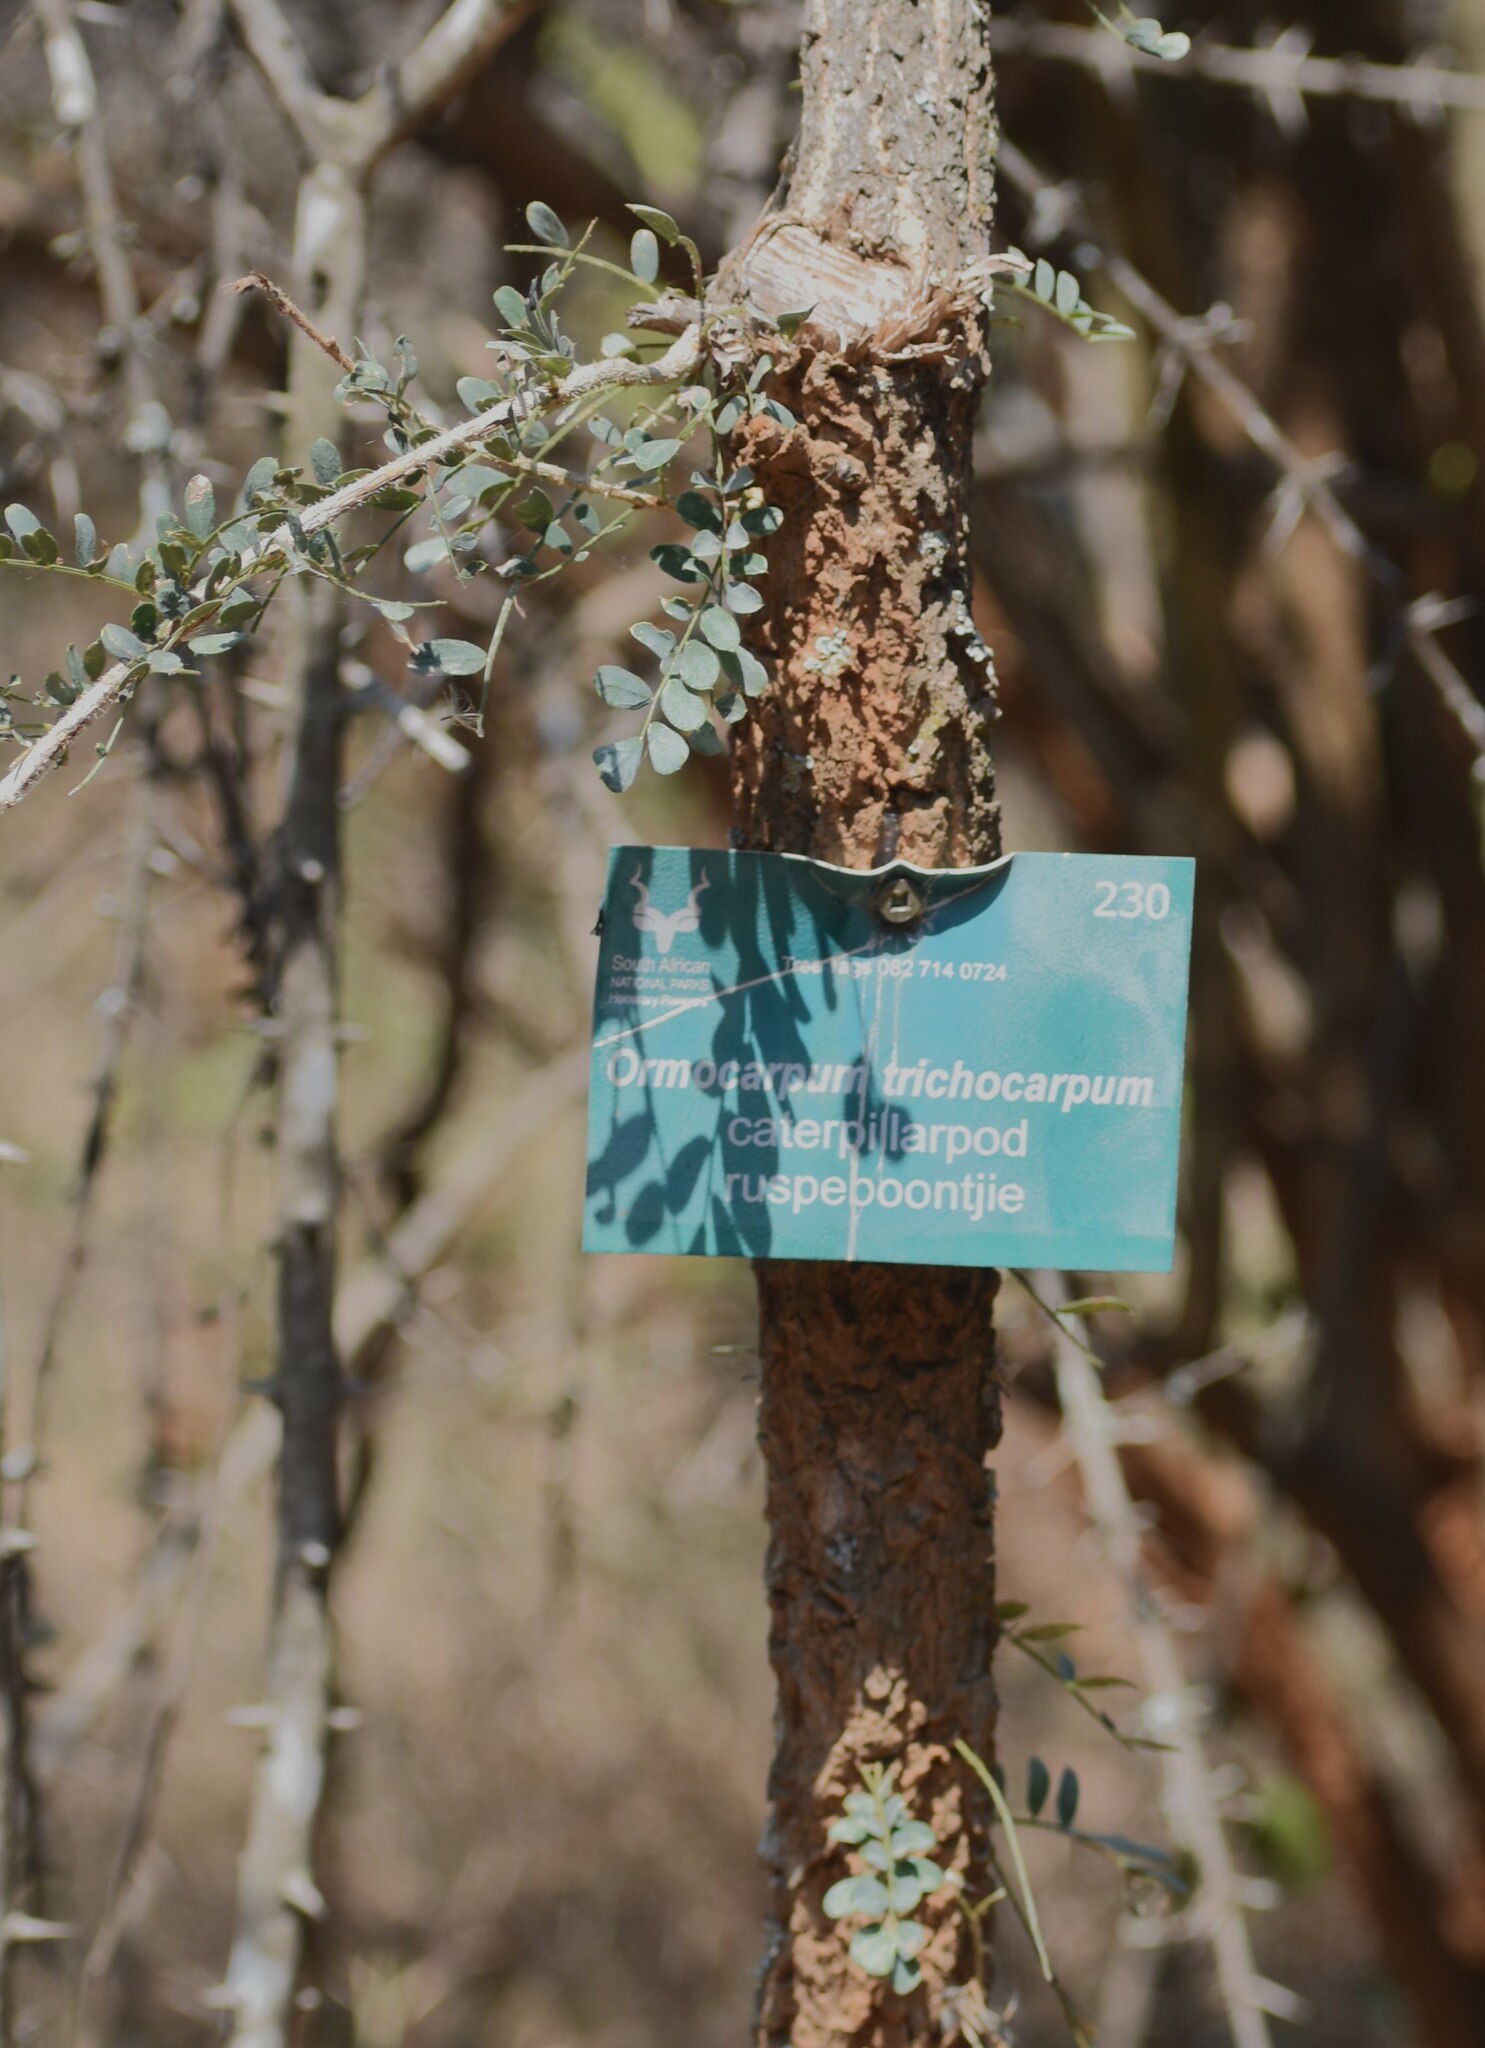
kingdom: Plantae
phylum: Tracheophyta
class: Magnoliopsida
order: Fabales
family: Fabaceae
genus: Ormocarpum
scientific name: Ormocarpum trichocarpum
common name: Caterpillar bush
